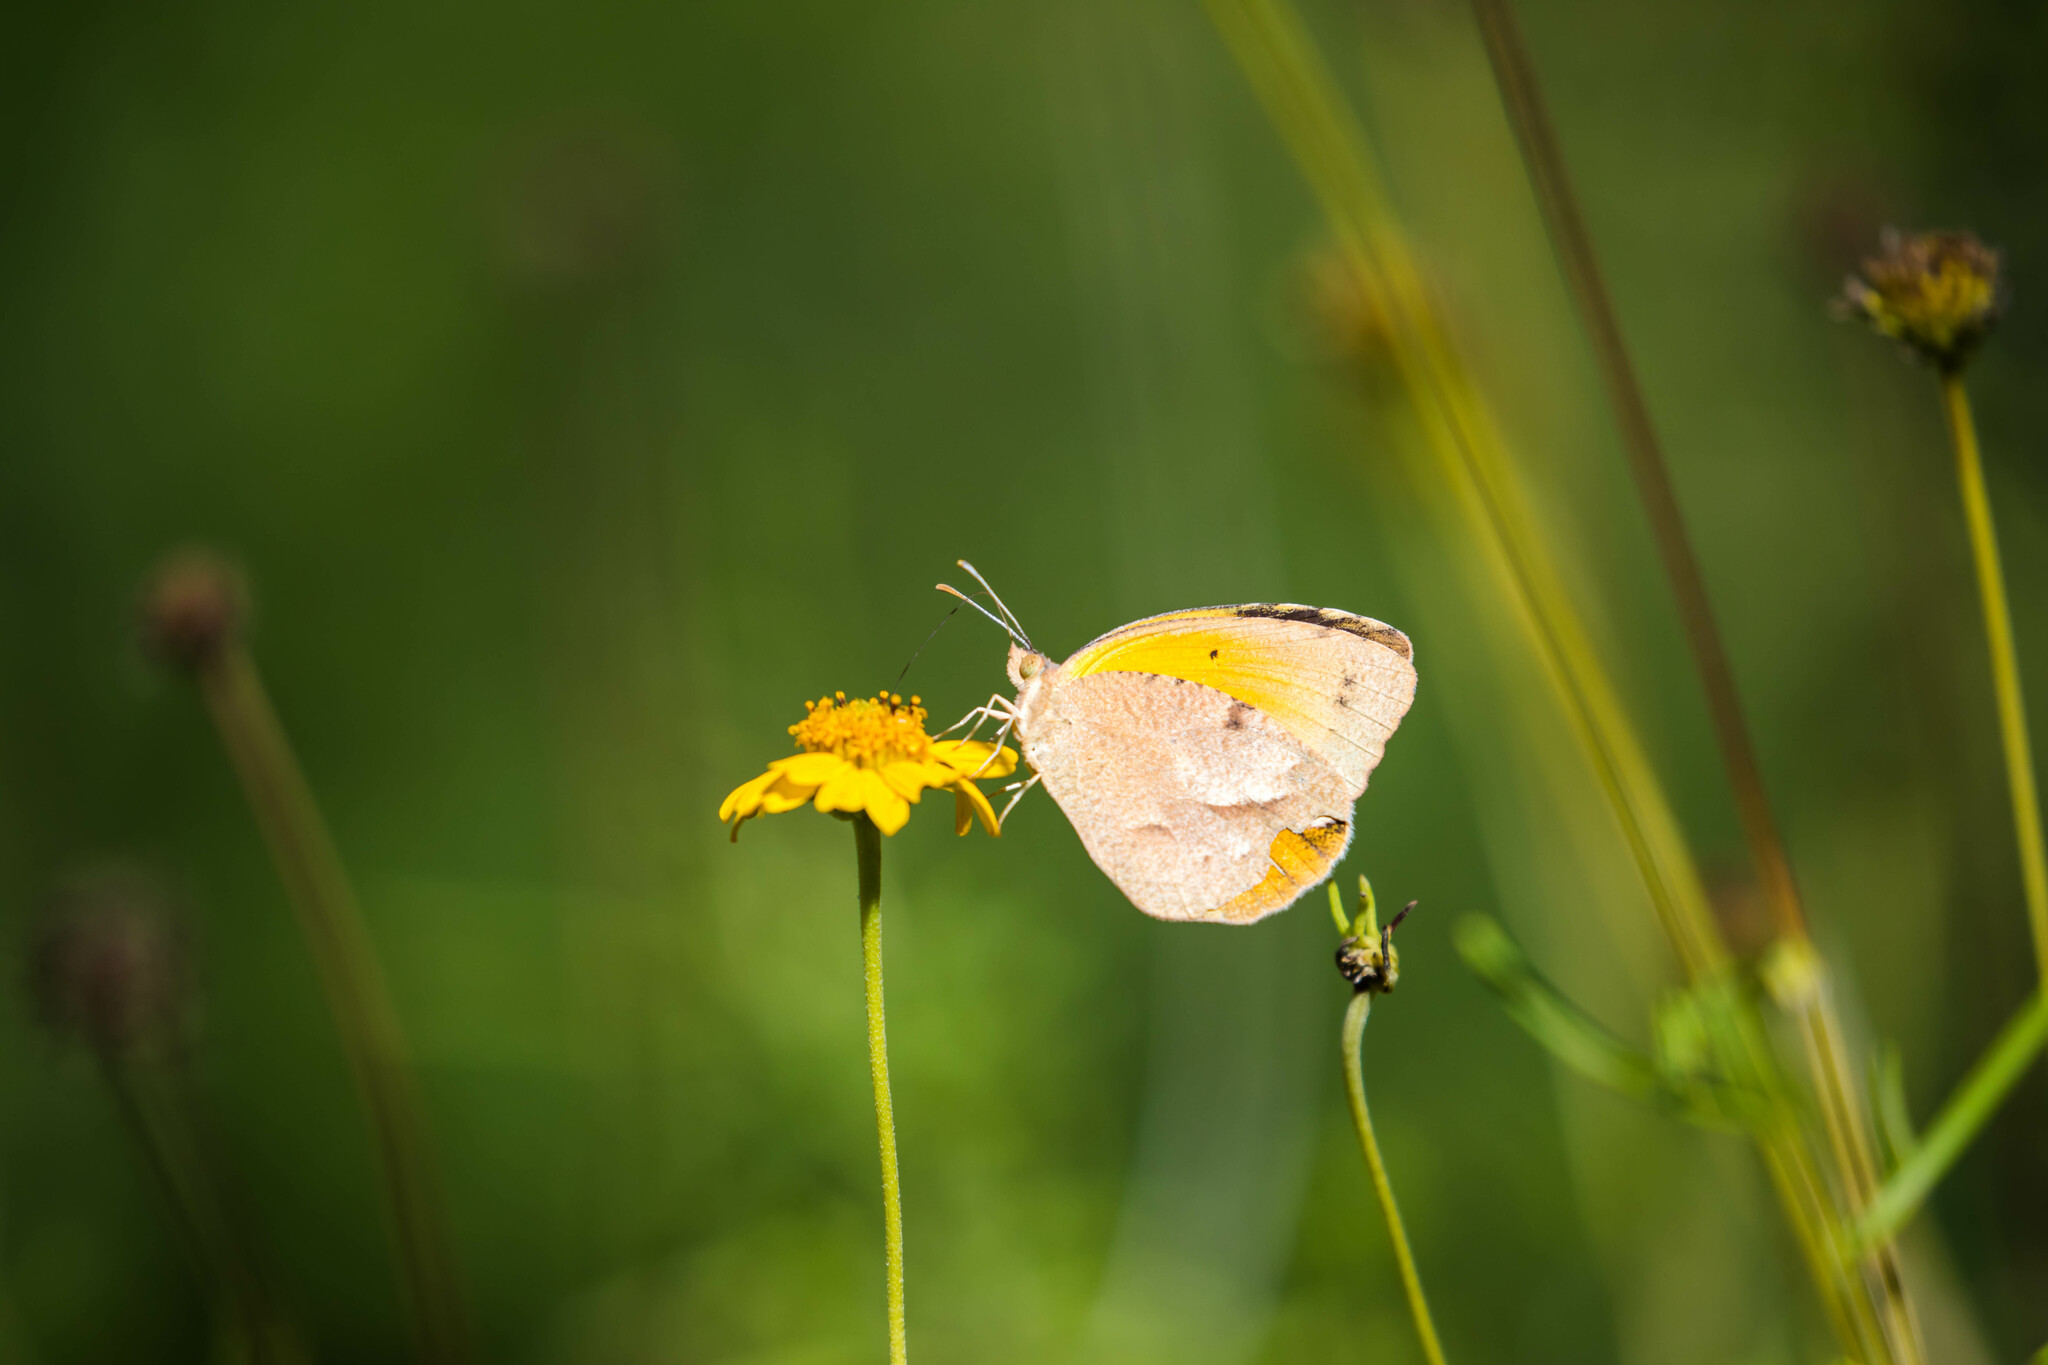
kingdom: Animalia
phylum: Arthropoda
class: Insecta
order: Lepidoptera
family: Pieridae
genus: Abaeis
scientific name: Abaeis nicippe
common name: Sleepy orange
